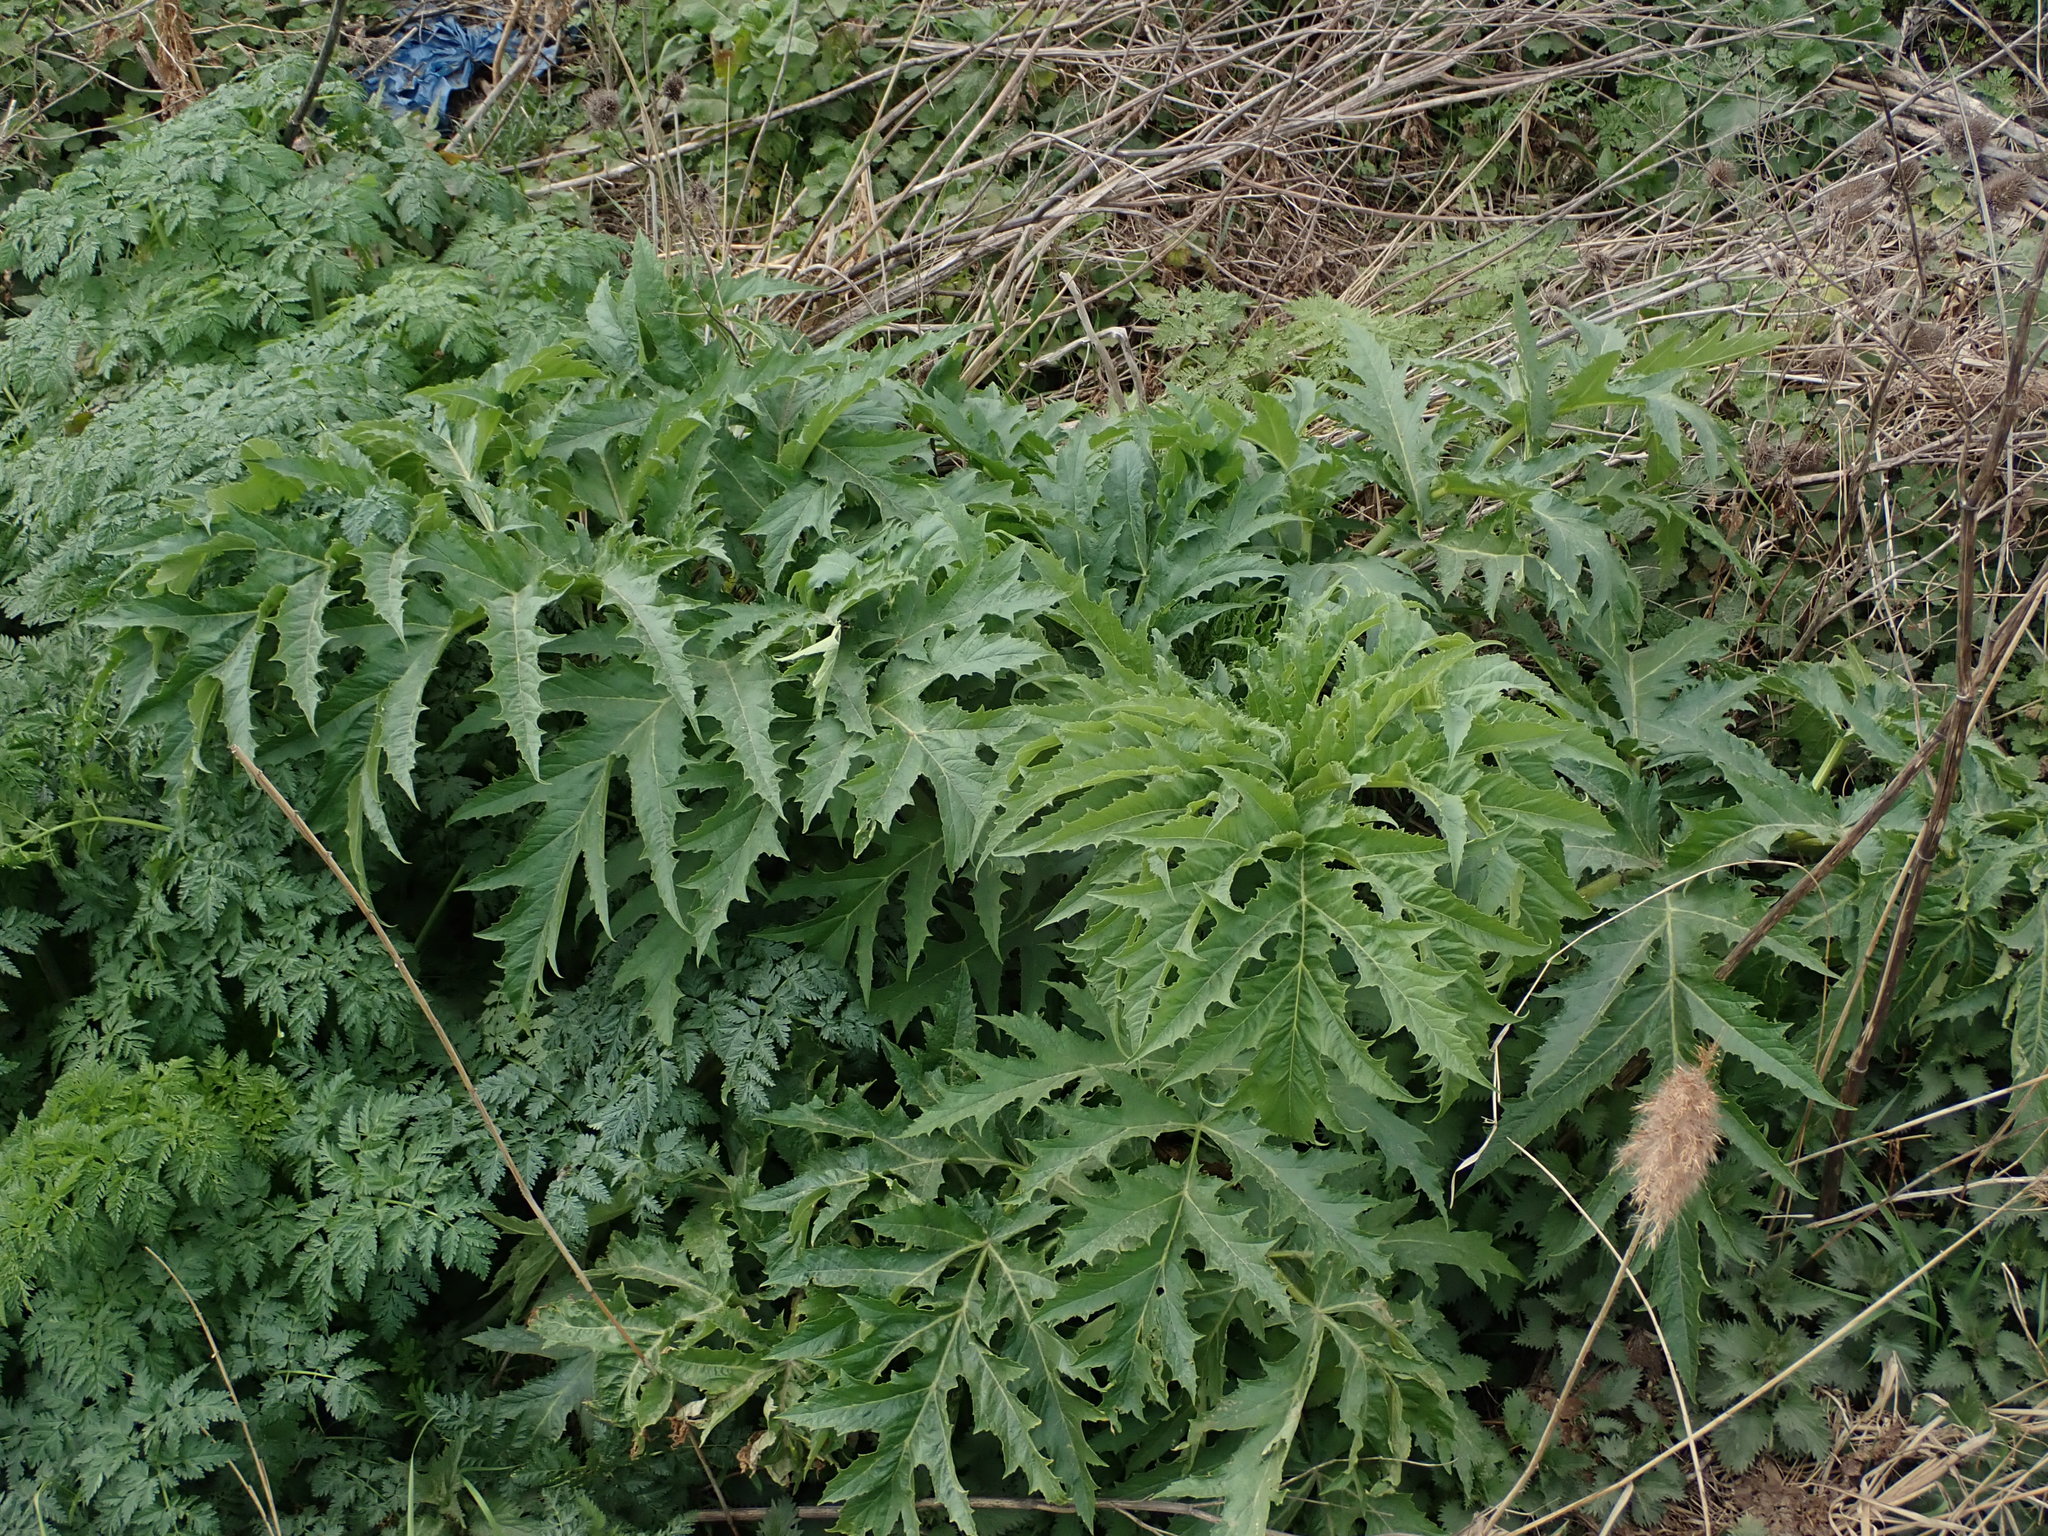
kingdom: Plantae
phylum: Tracheophyta
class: Magnoliopsida
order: Apiales
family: Apiaceae
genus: Heracleum
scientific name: Heracleum mantegazzianum
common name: Giant hogweed
